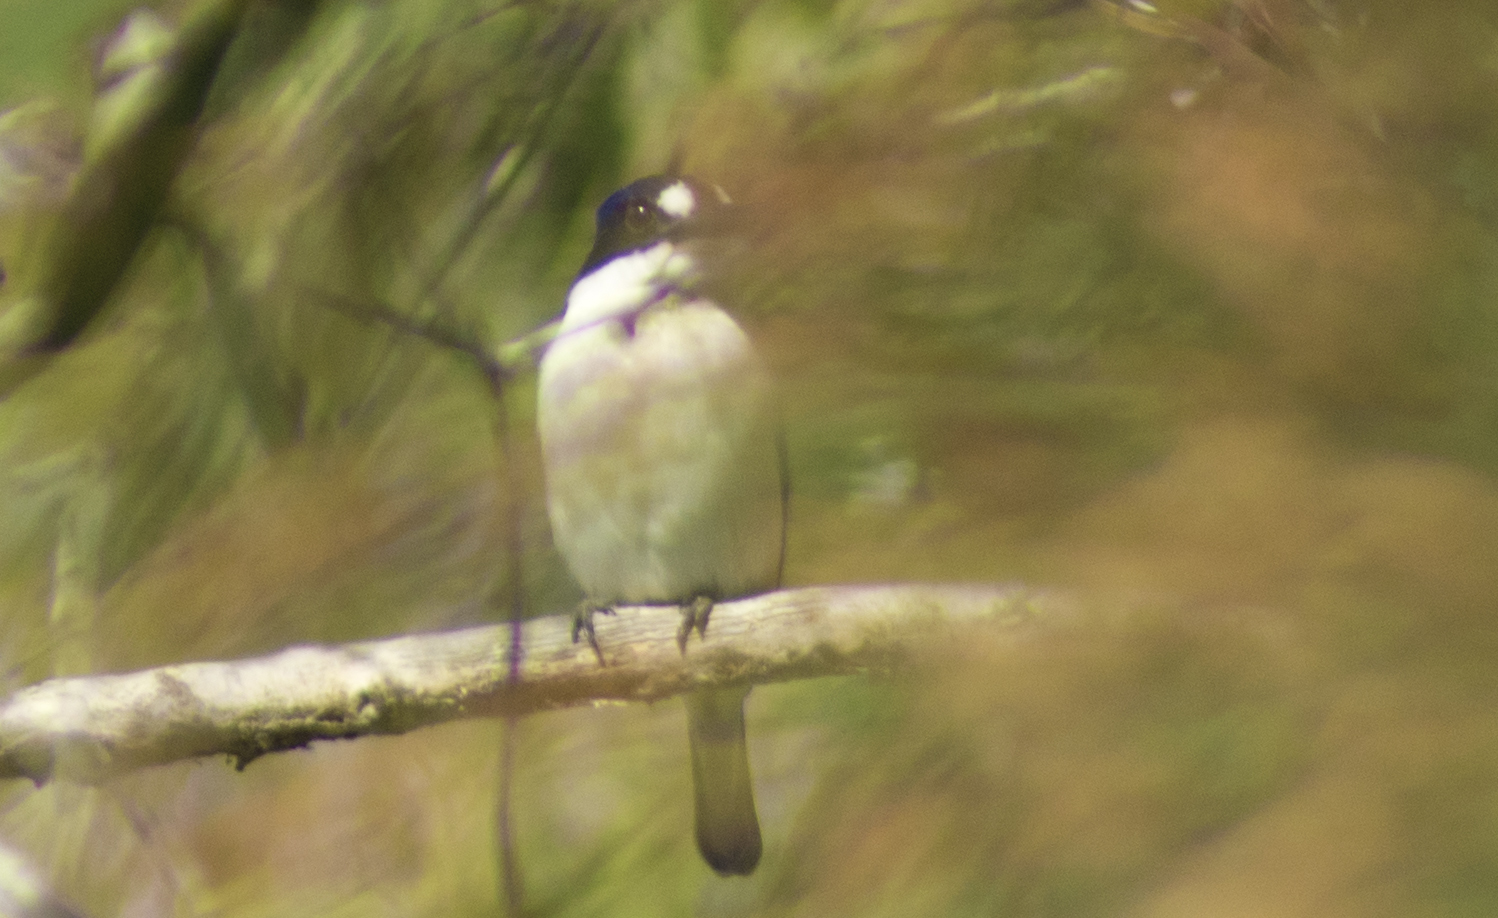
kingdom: Animalia
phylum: Chordata
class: Aves
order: Coraciiformes
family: Alcedinidae
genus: Todiramphus
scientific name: Todiramphus macleayii
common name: Forest kingfisher
